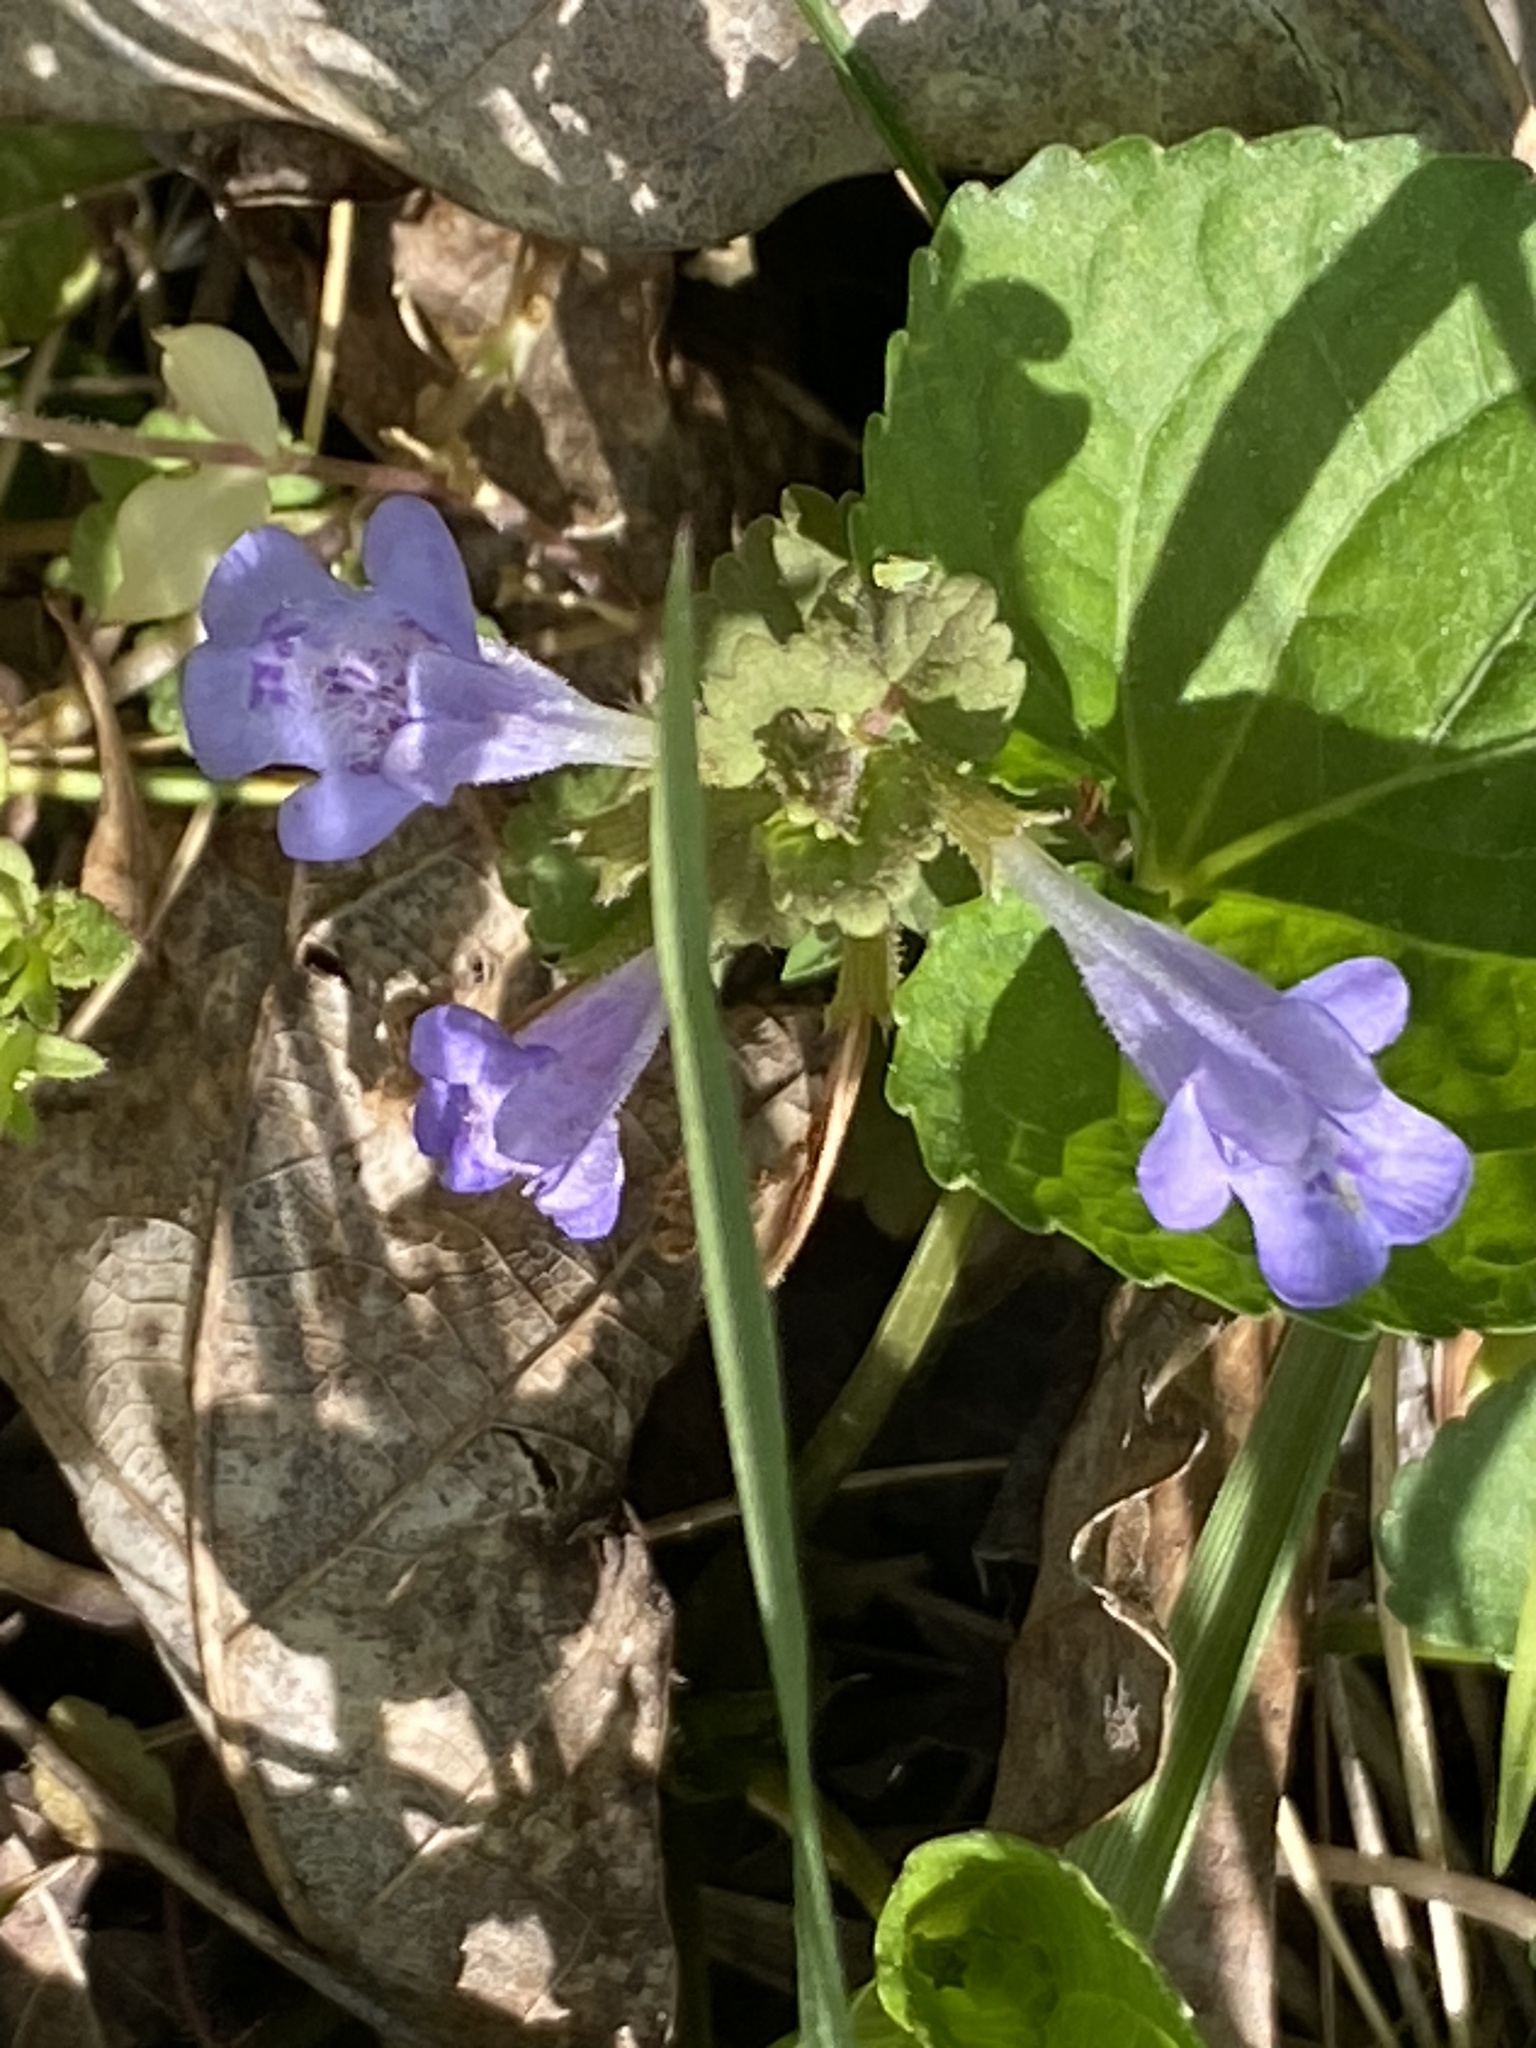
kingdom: Plantae
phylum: Tracheophyta
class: Magnoliopsida
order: Lamiales
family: Lamiaceae
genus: Glechoma
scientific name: Glechoma hederacea
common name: Ground ivy
